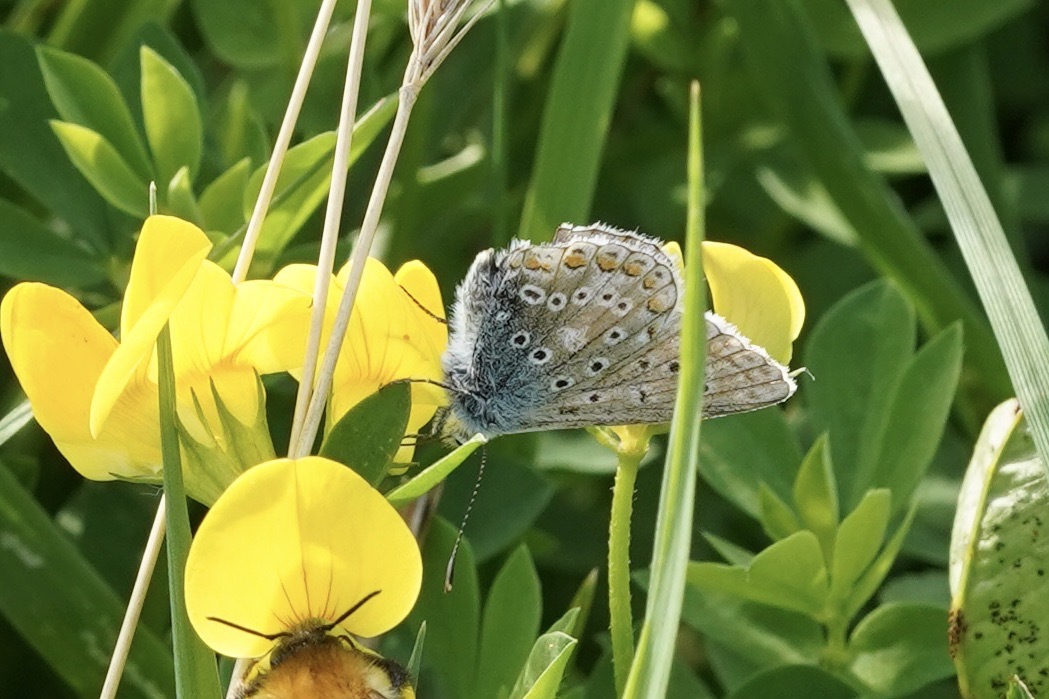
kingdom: Animalia
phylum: Arthropoda
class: Insecta
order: Lepidoptera
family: Lycaenidae
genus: Polyommatus
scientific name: Polyommatus icarus
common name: Common blue
